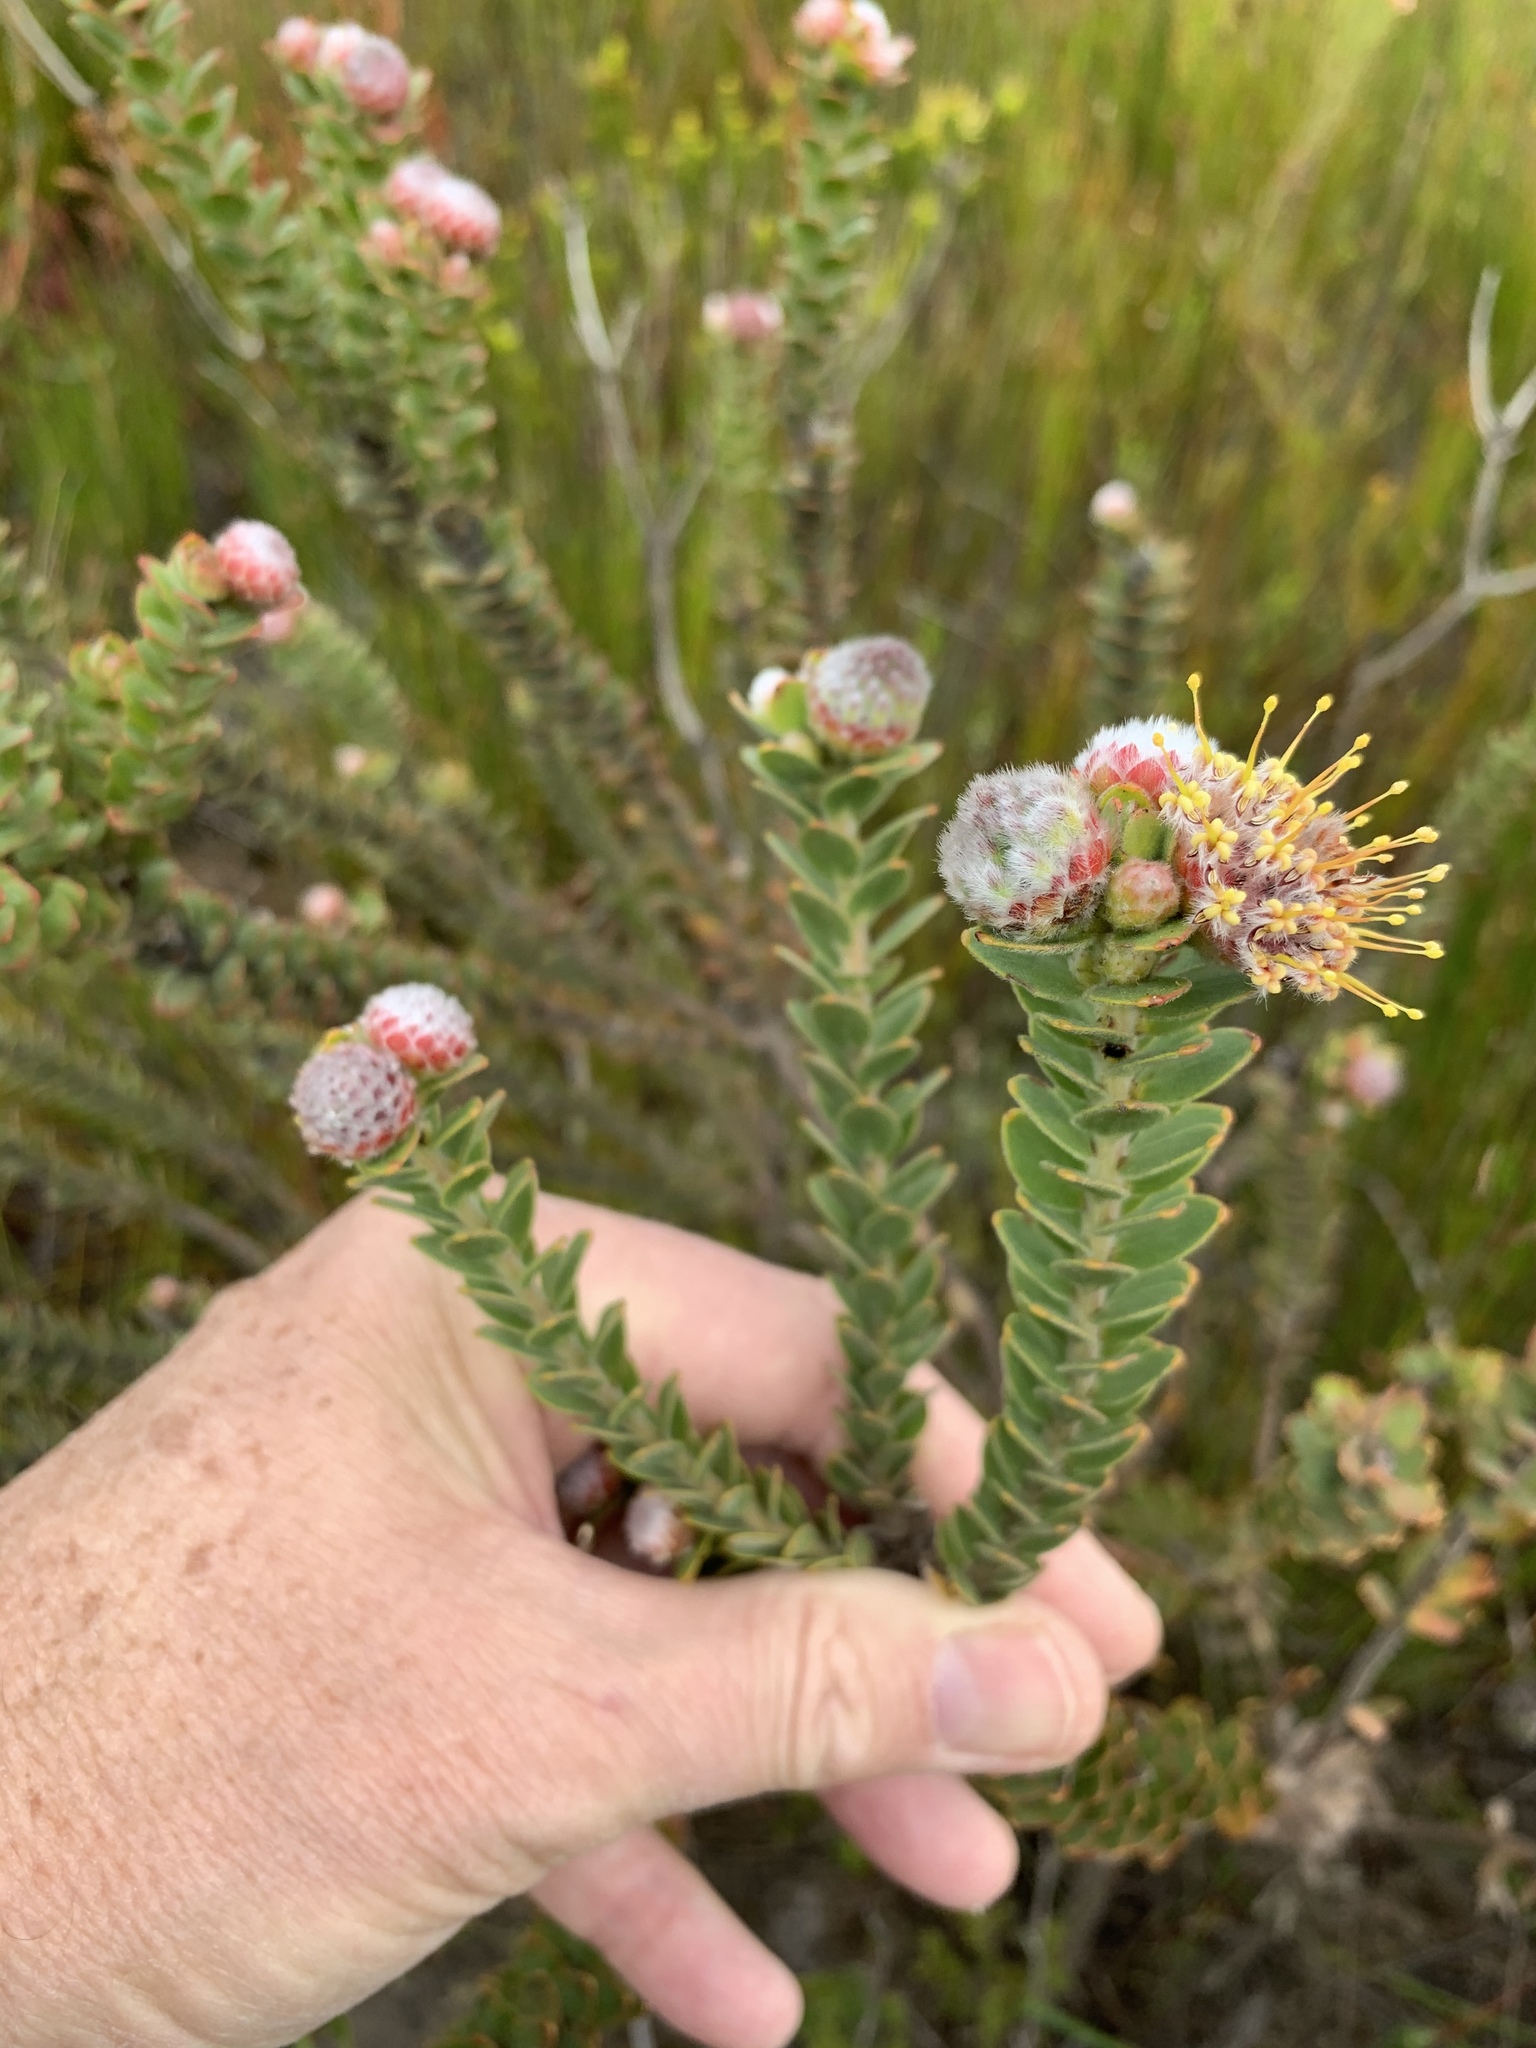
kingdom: Plantae
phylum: Tracheophyta
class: Magnoliopsida
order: Proteales
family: Proteaceae
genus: Leucospermum
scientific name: Leucospermum truncatulum
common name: Oval-leaf pincushion
